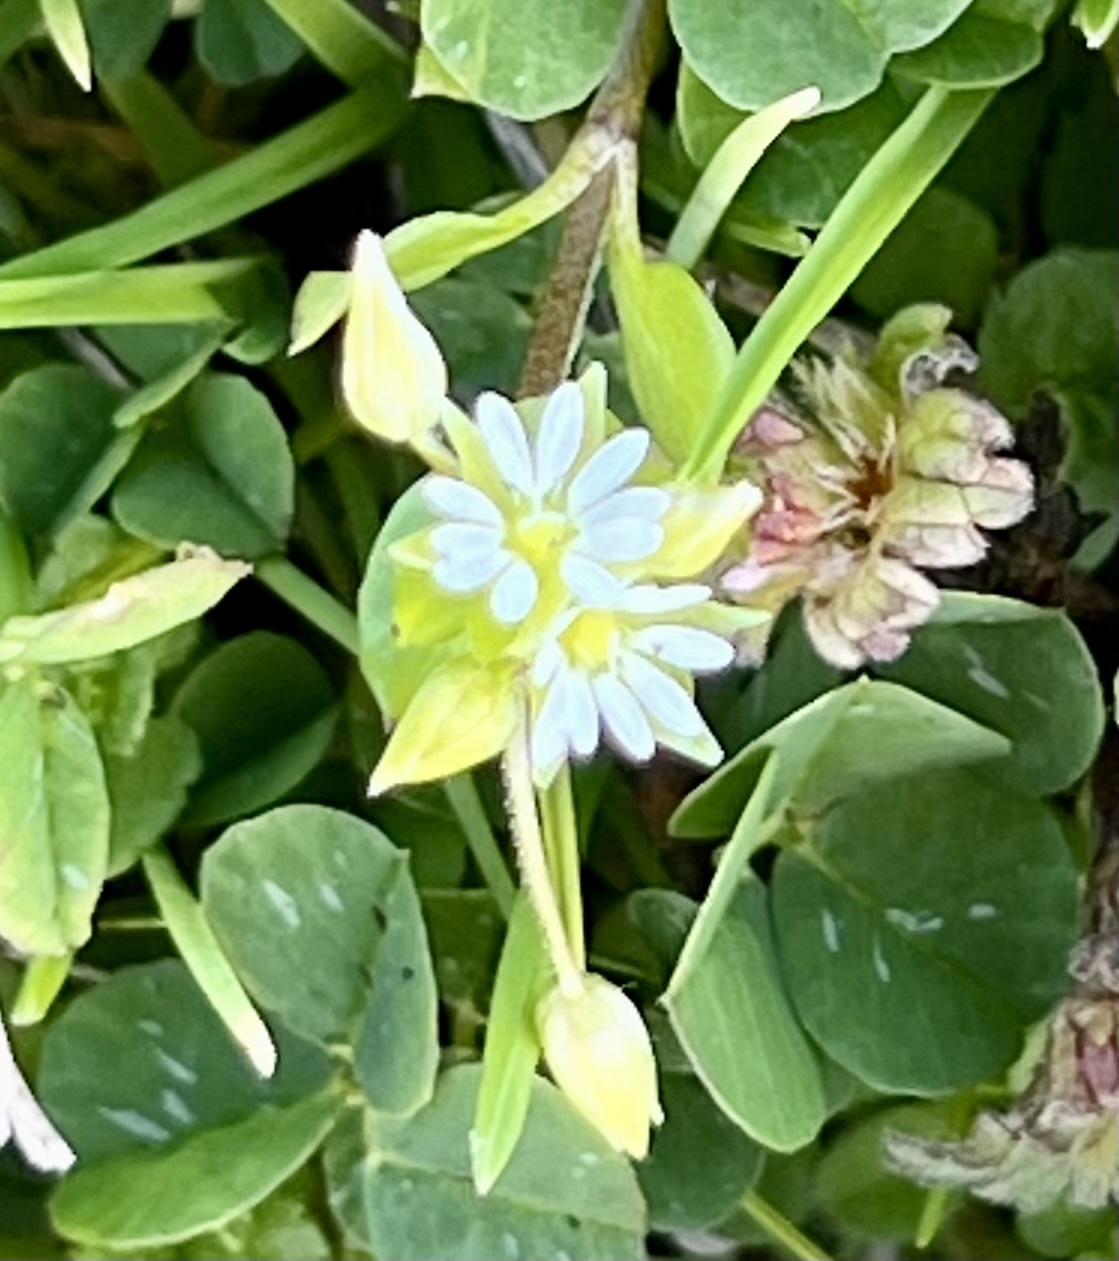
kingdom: Plantae
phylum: Tracheophyta
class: Magnoliopsida
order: Caryophyllales
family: Caryophyllaceae
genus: Stellaria
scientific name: Stellaria media
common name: Common chickweed
